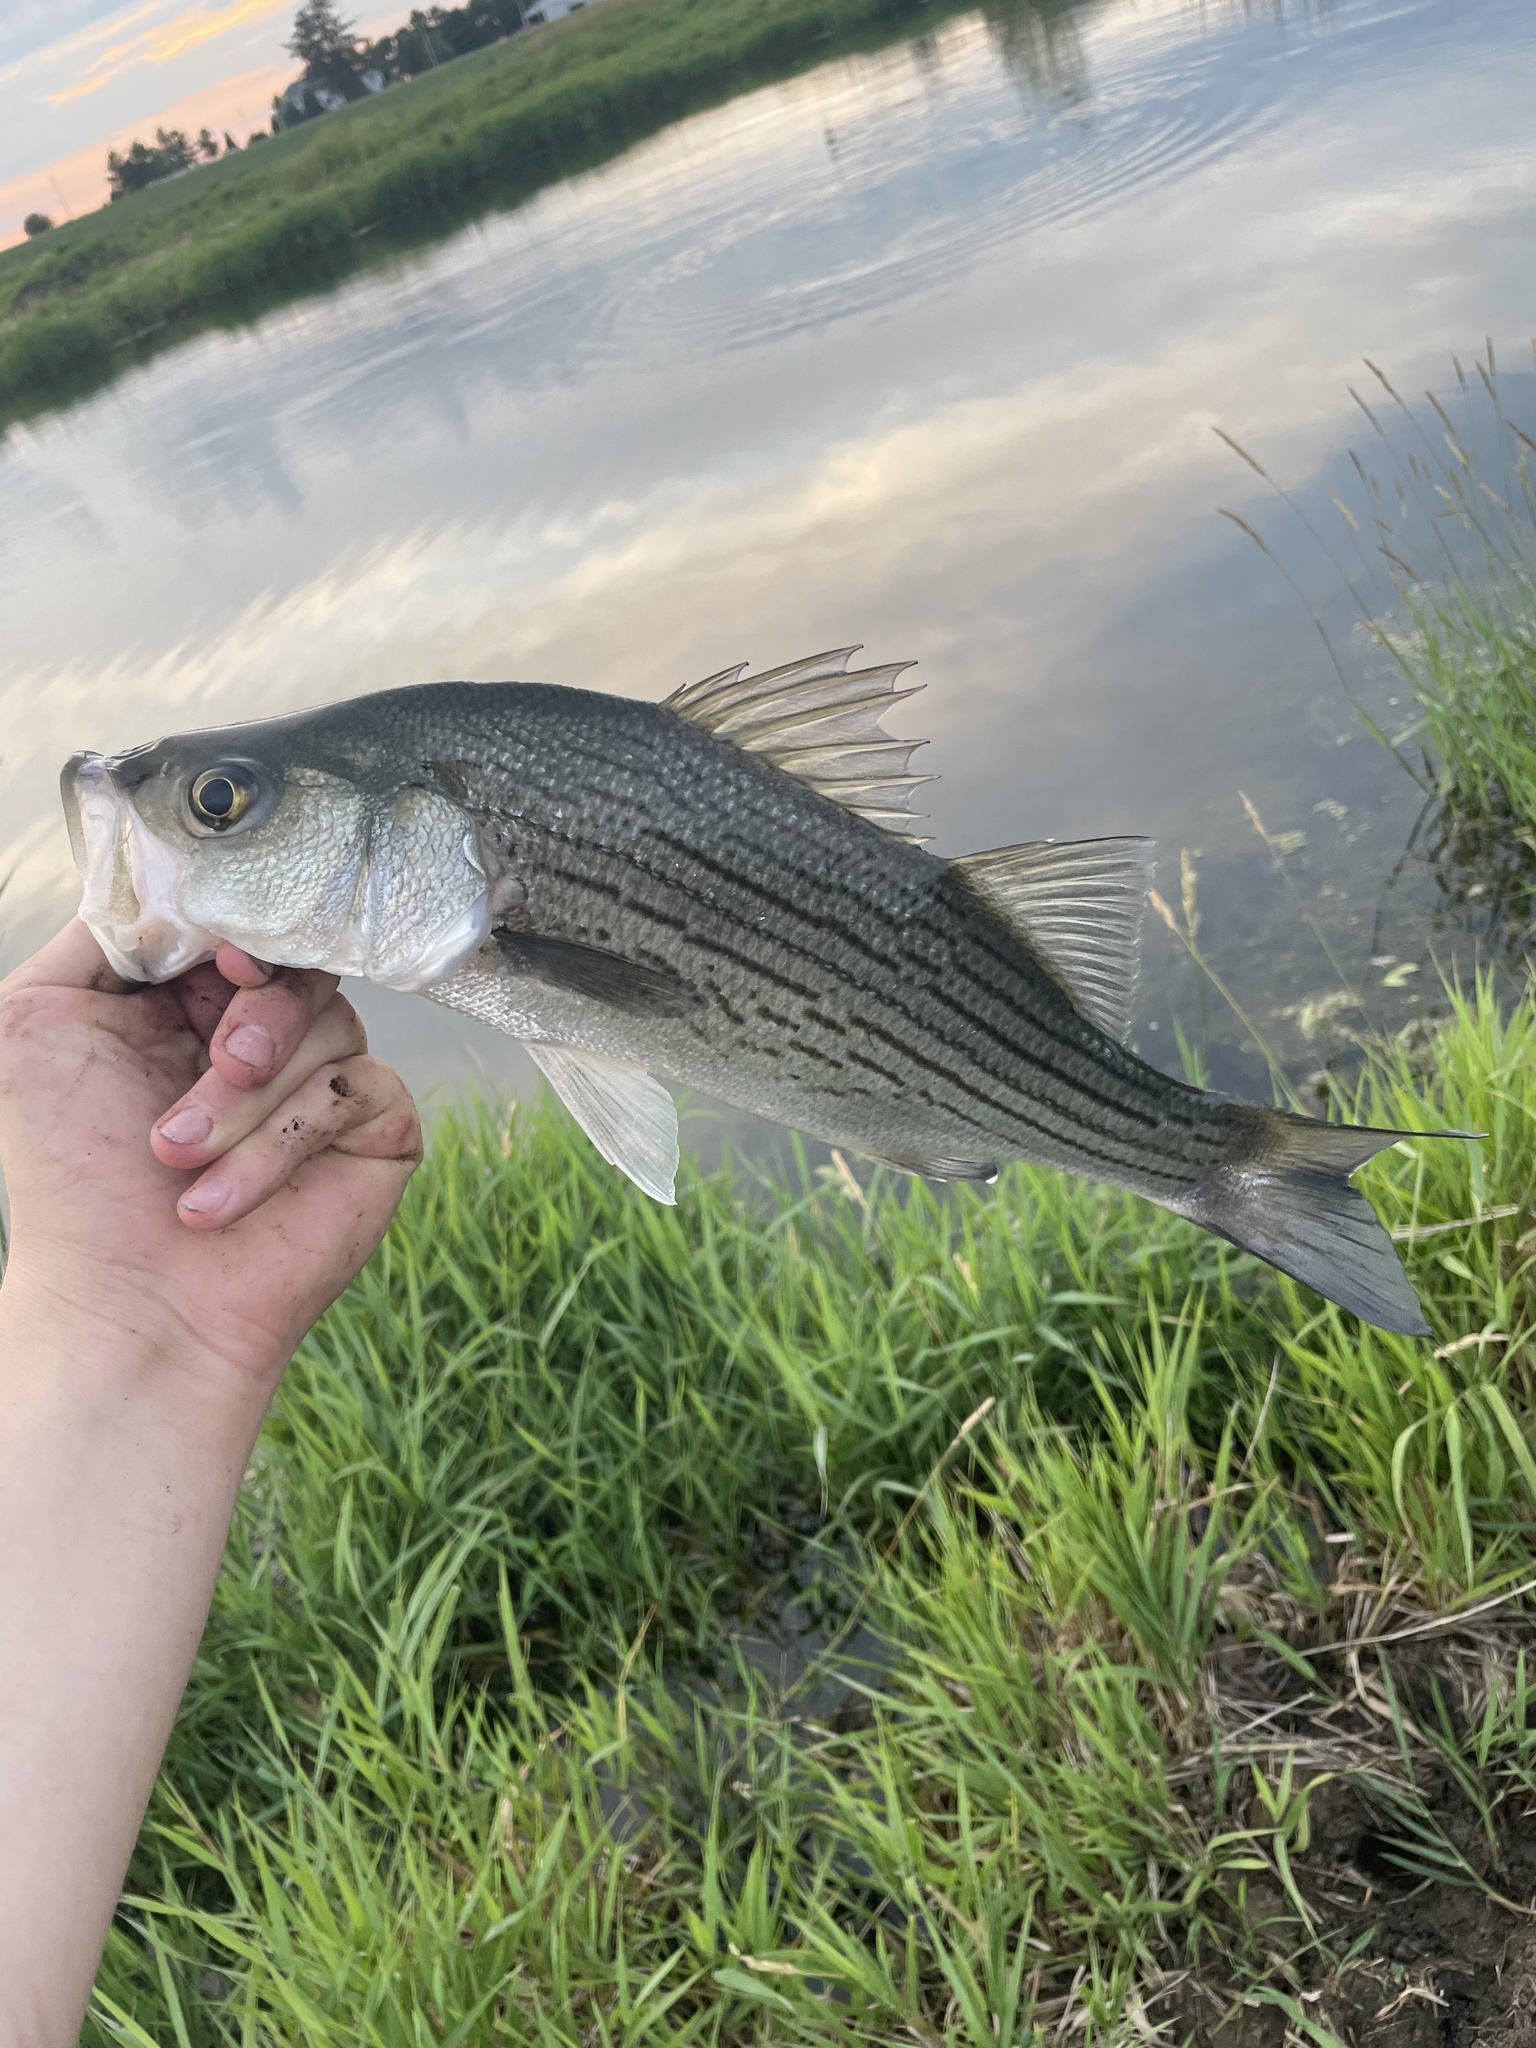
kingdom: Animalia
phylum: Chordata
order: Perciformes
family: Moronidae
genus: Morone
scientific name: Morone
